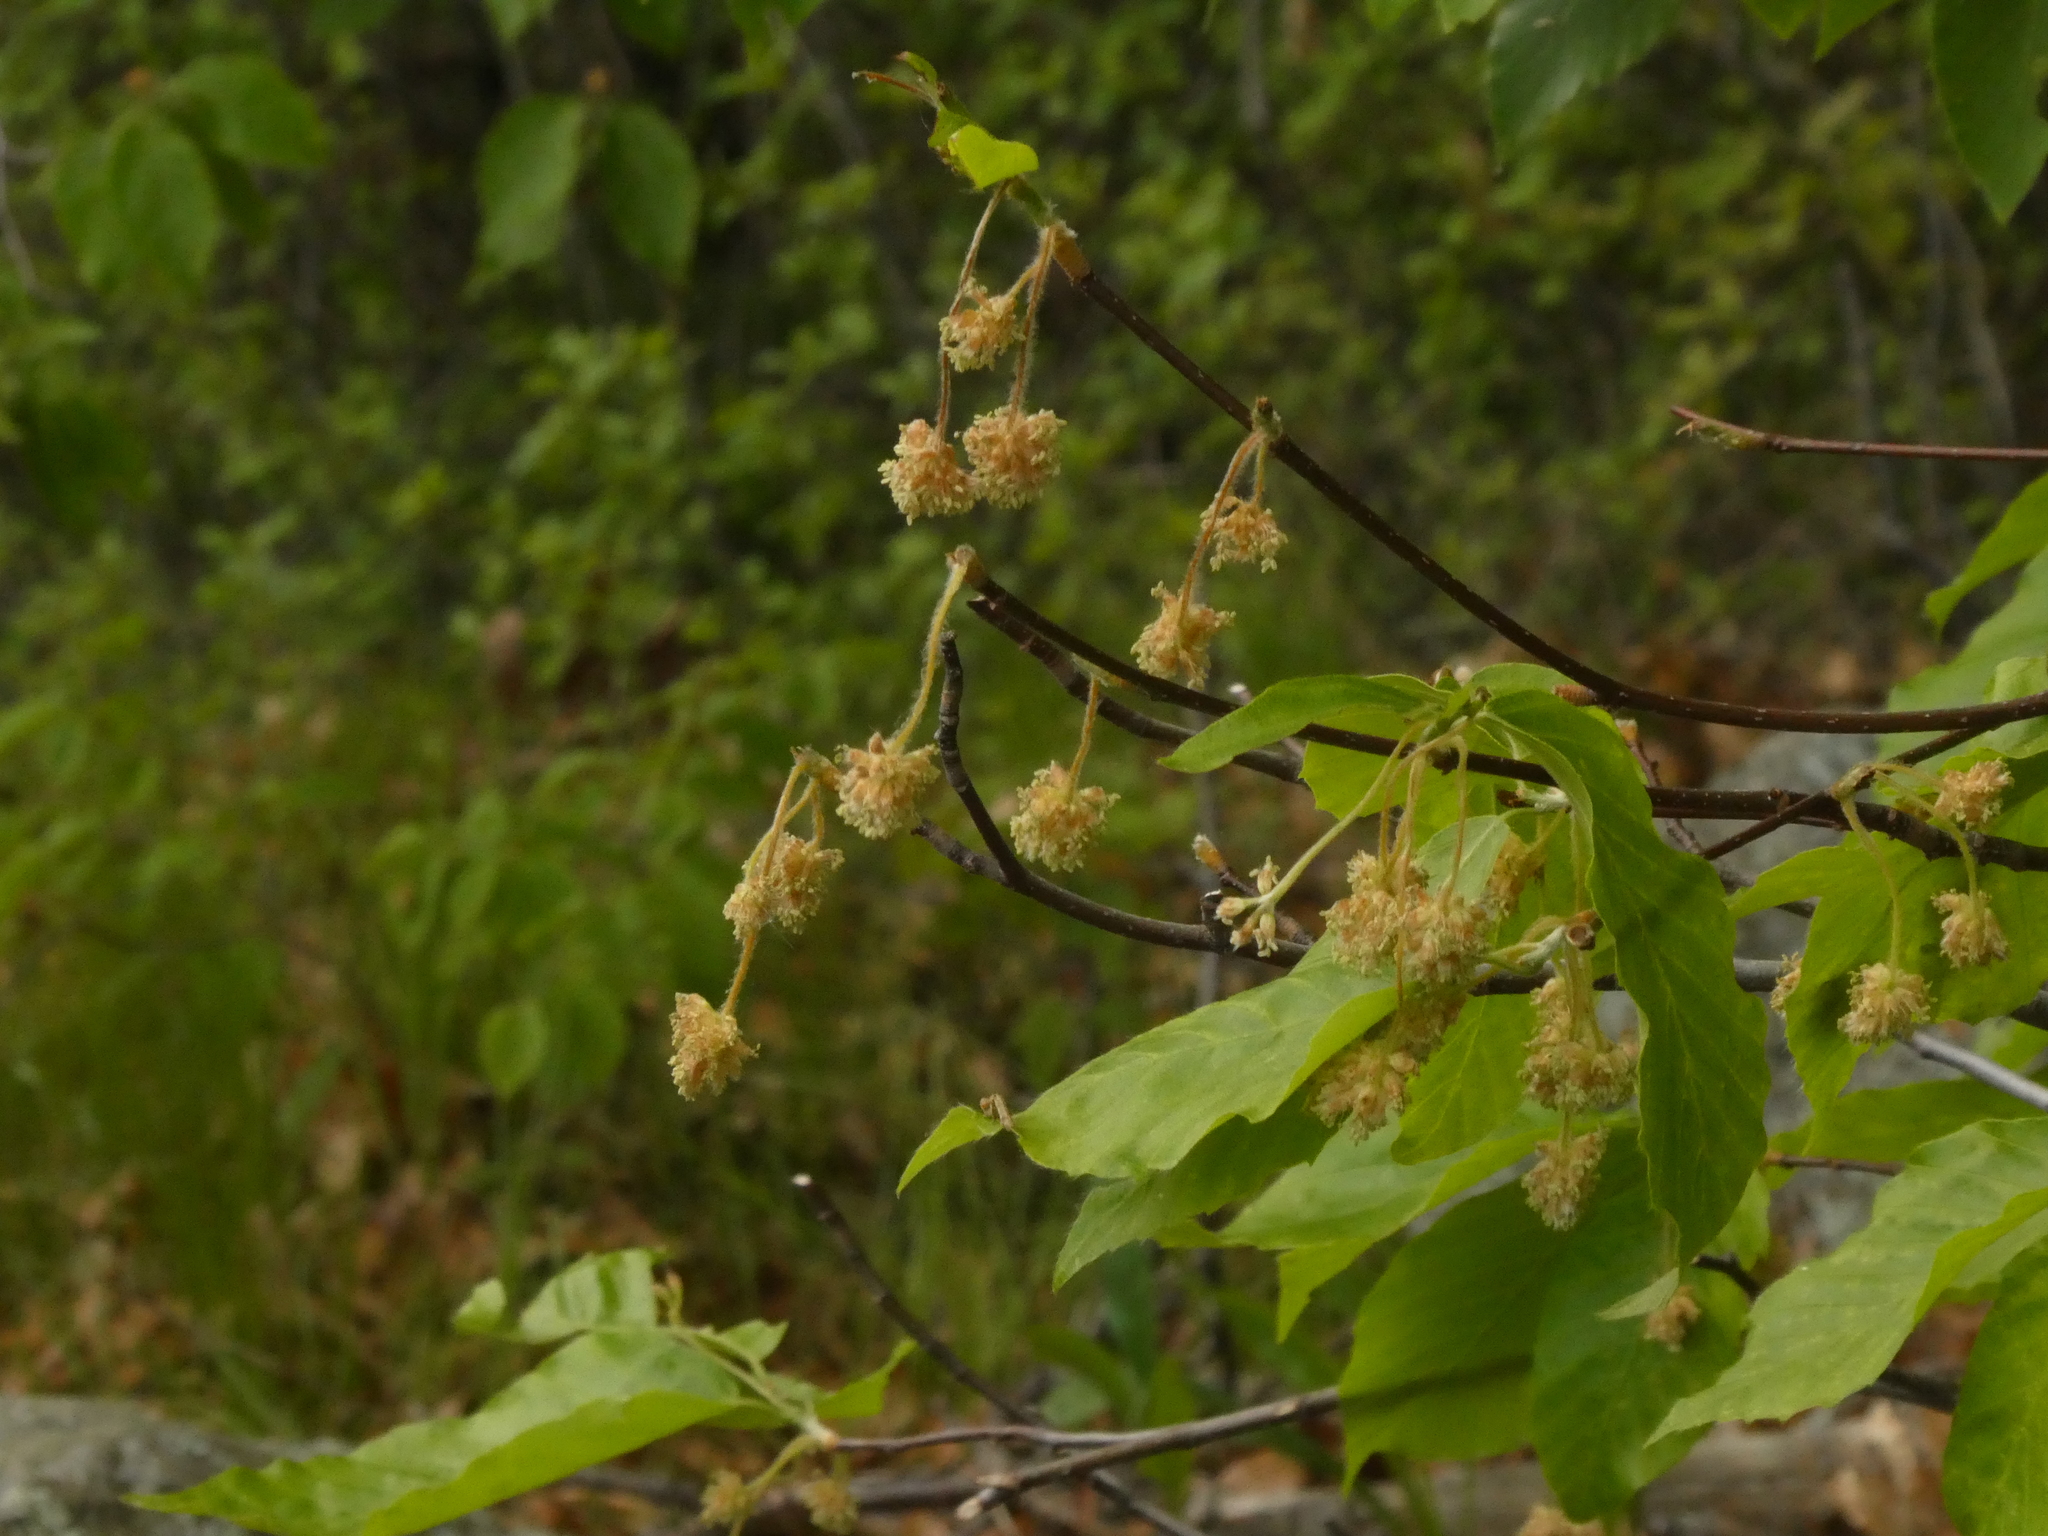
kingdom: Plantae
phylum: Tracheophyta
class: Magnoliopsida
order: Fagales
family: Fagaceae
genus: Fagus
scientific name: Fagus grandifolia
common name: American beech
